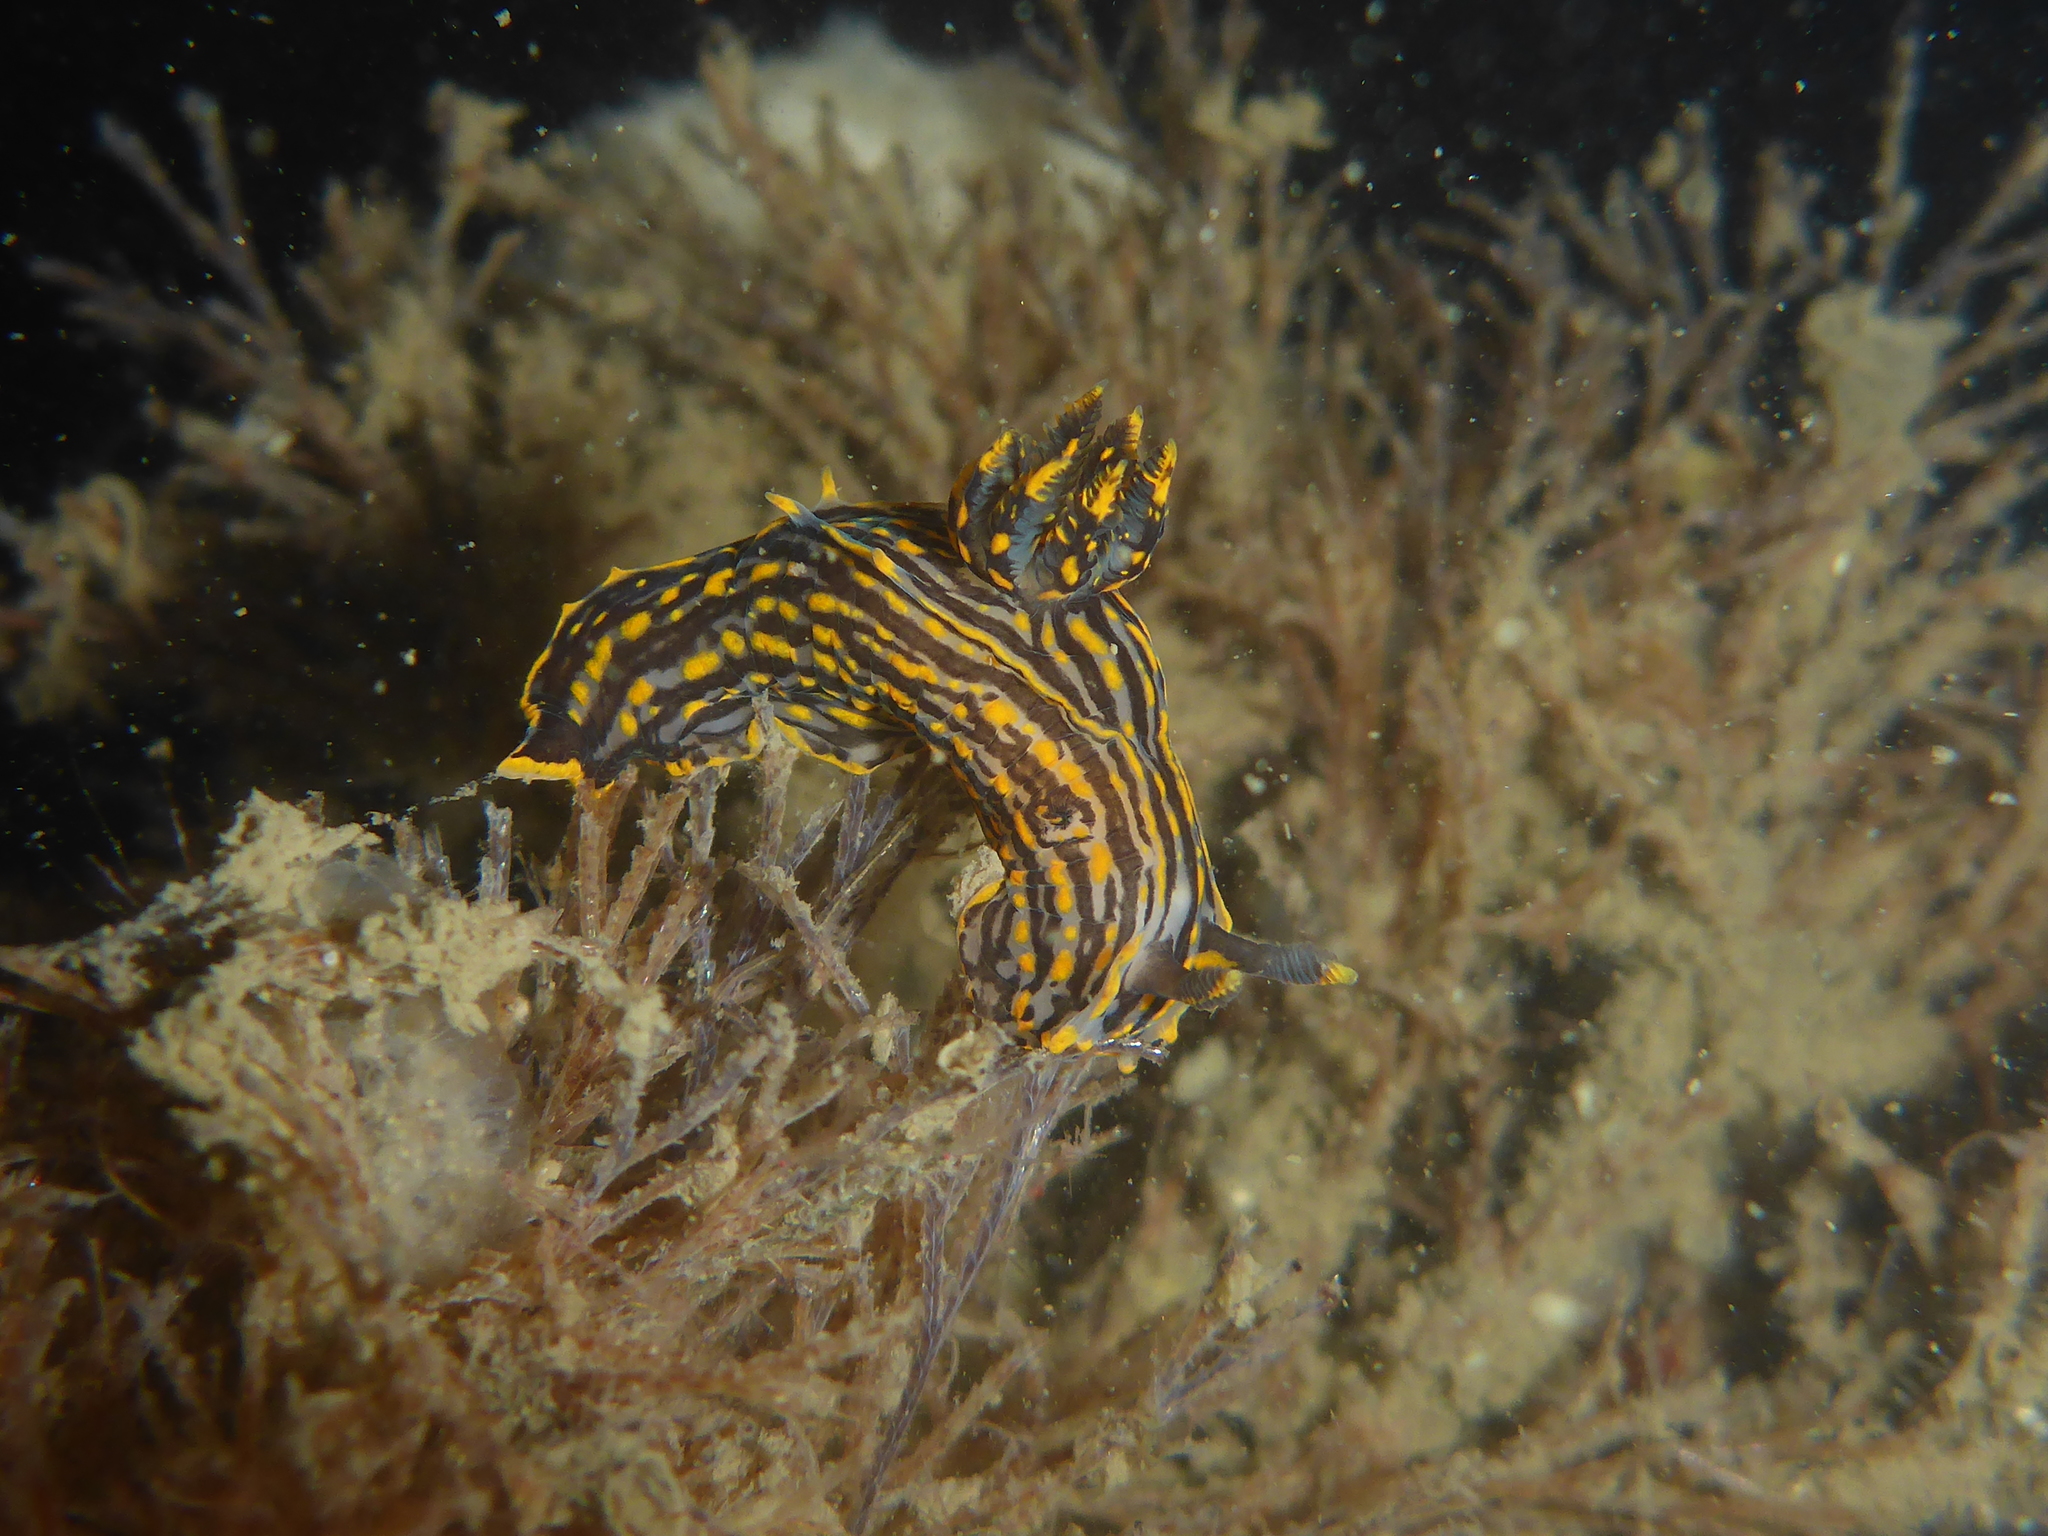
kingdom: Animalia
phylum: Mollusca
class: Gastropoda
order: Nudibranchia
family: Polyceridae
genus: Polycera
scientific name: Polycera atra
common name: Orange-spike polycera
